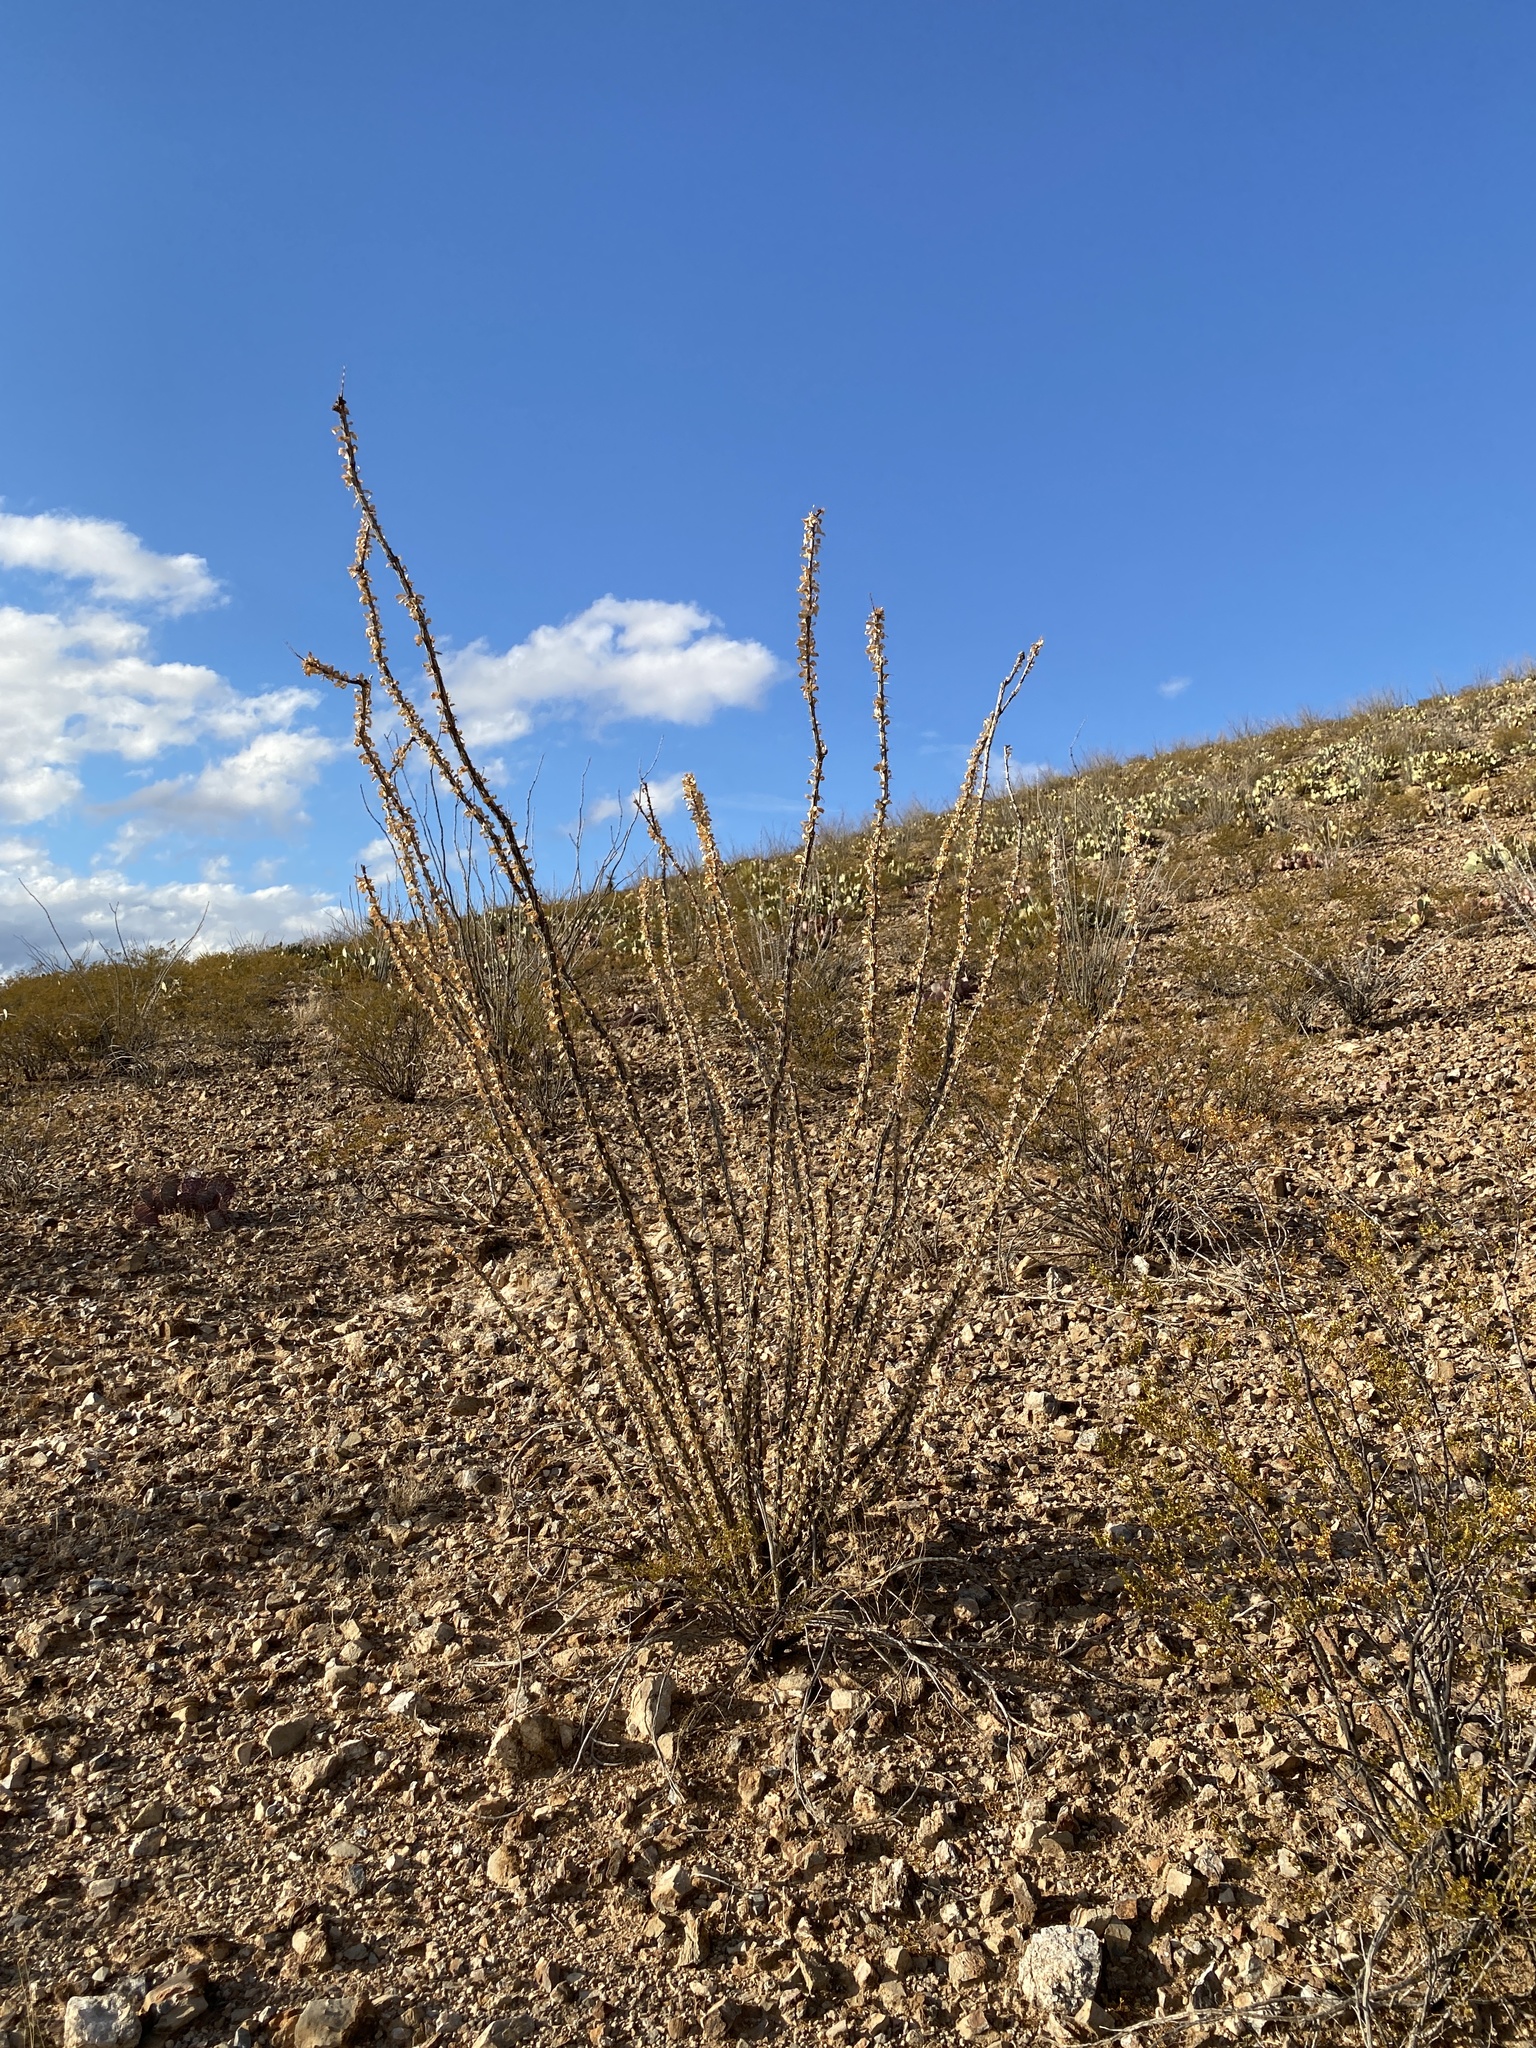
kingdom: Plantae
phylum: Tracheophyta
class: Magnoliopsida
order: Ericales
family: Fouquieriaceae
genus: Fouquieria
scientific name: Fouquieria splendens
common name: Vine-cactus
